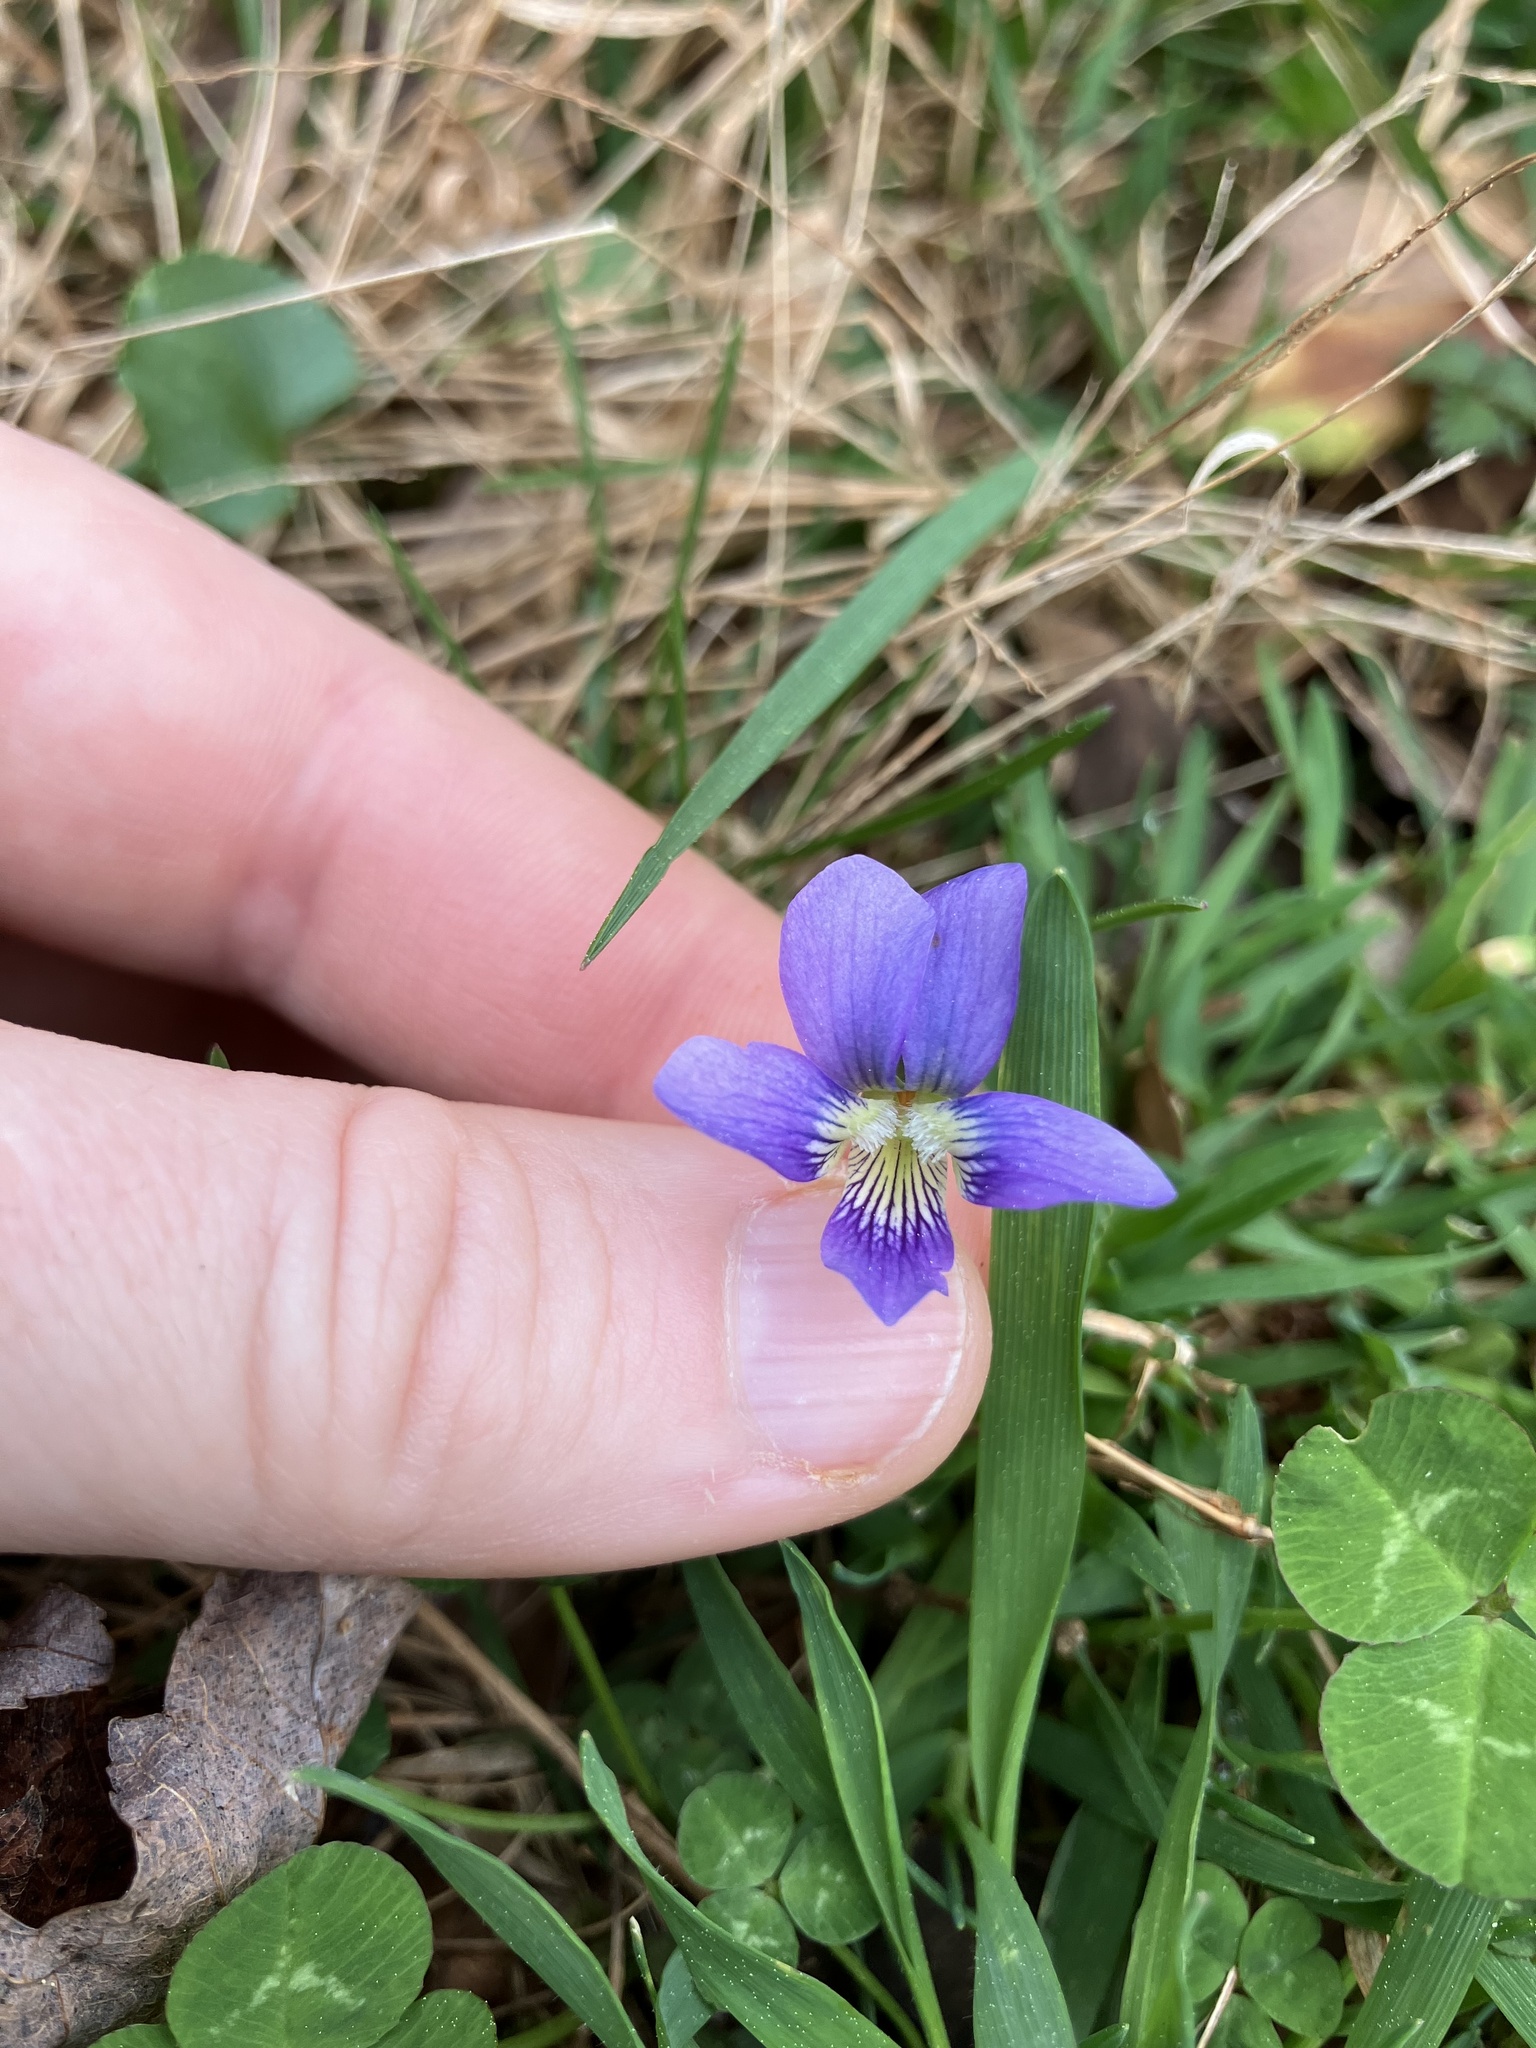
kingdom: Plantae
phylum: Tracheophyta
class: Magnoliopsida
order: Malpighiales
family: Violaceae
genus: Viola
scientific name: Viola cucullata
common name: Marsh blue violet
